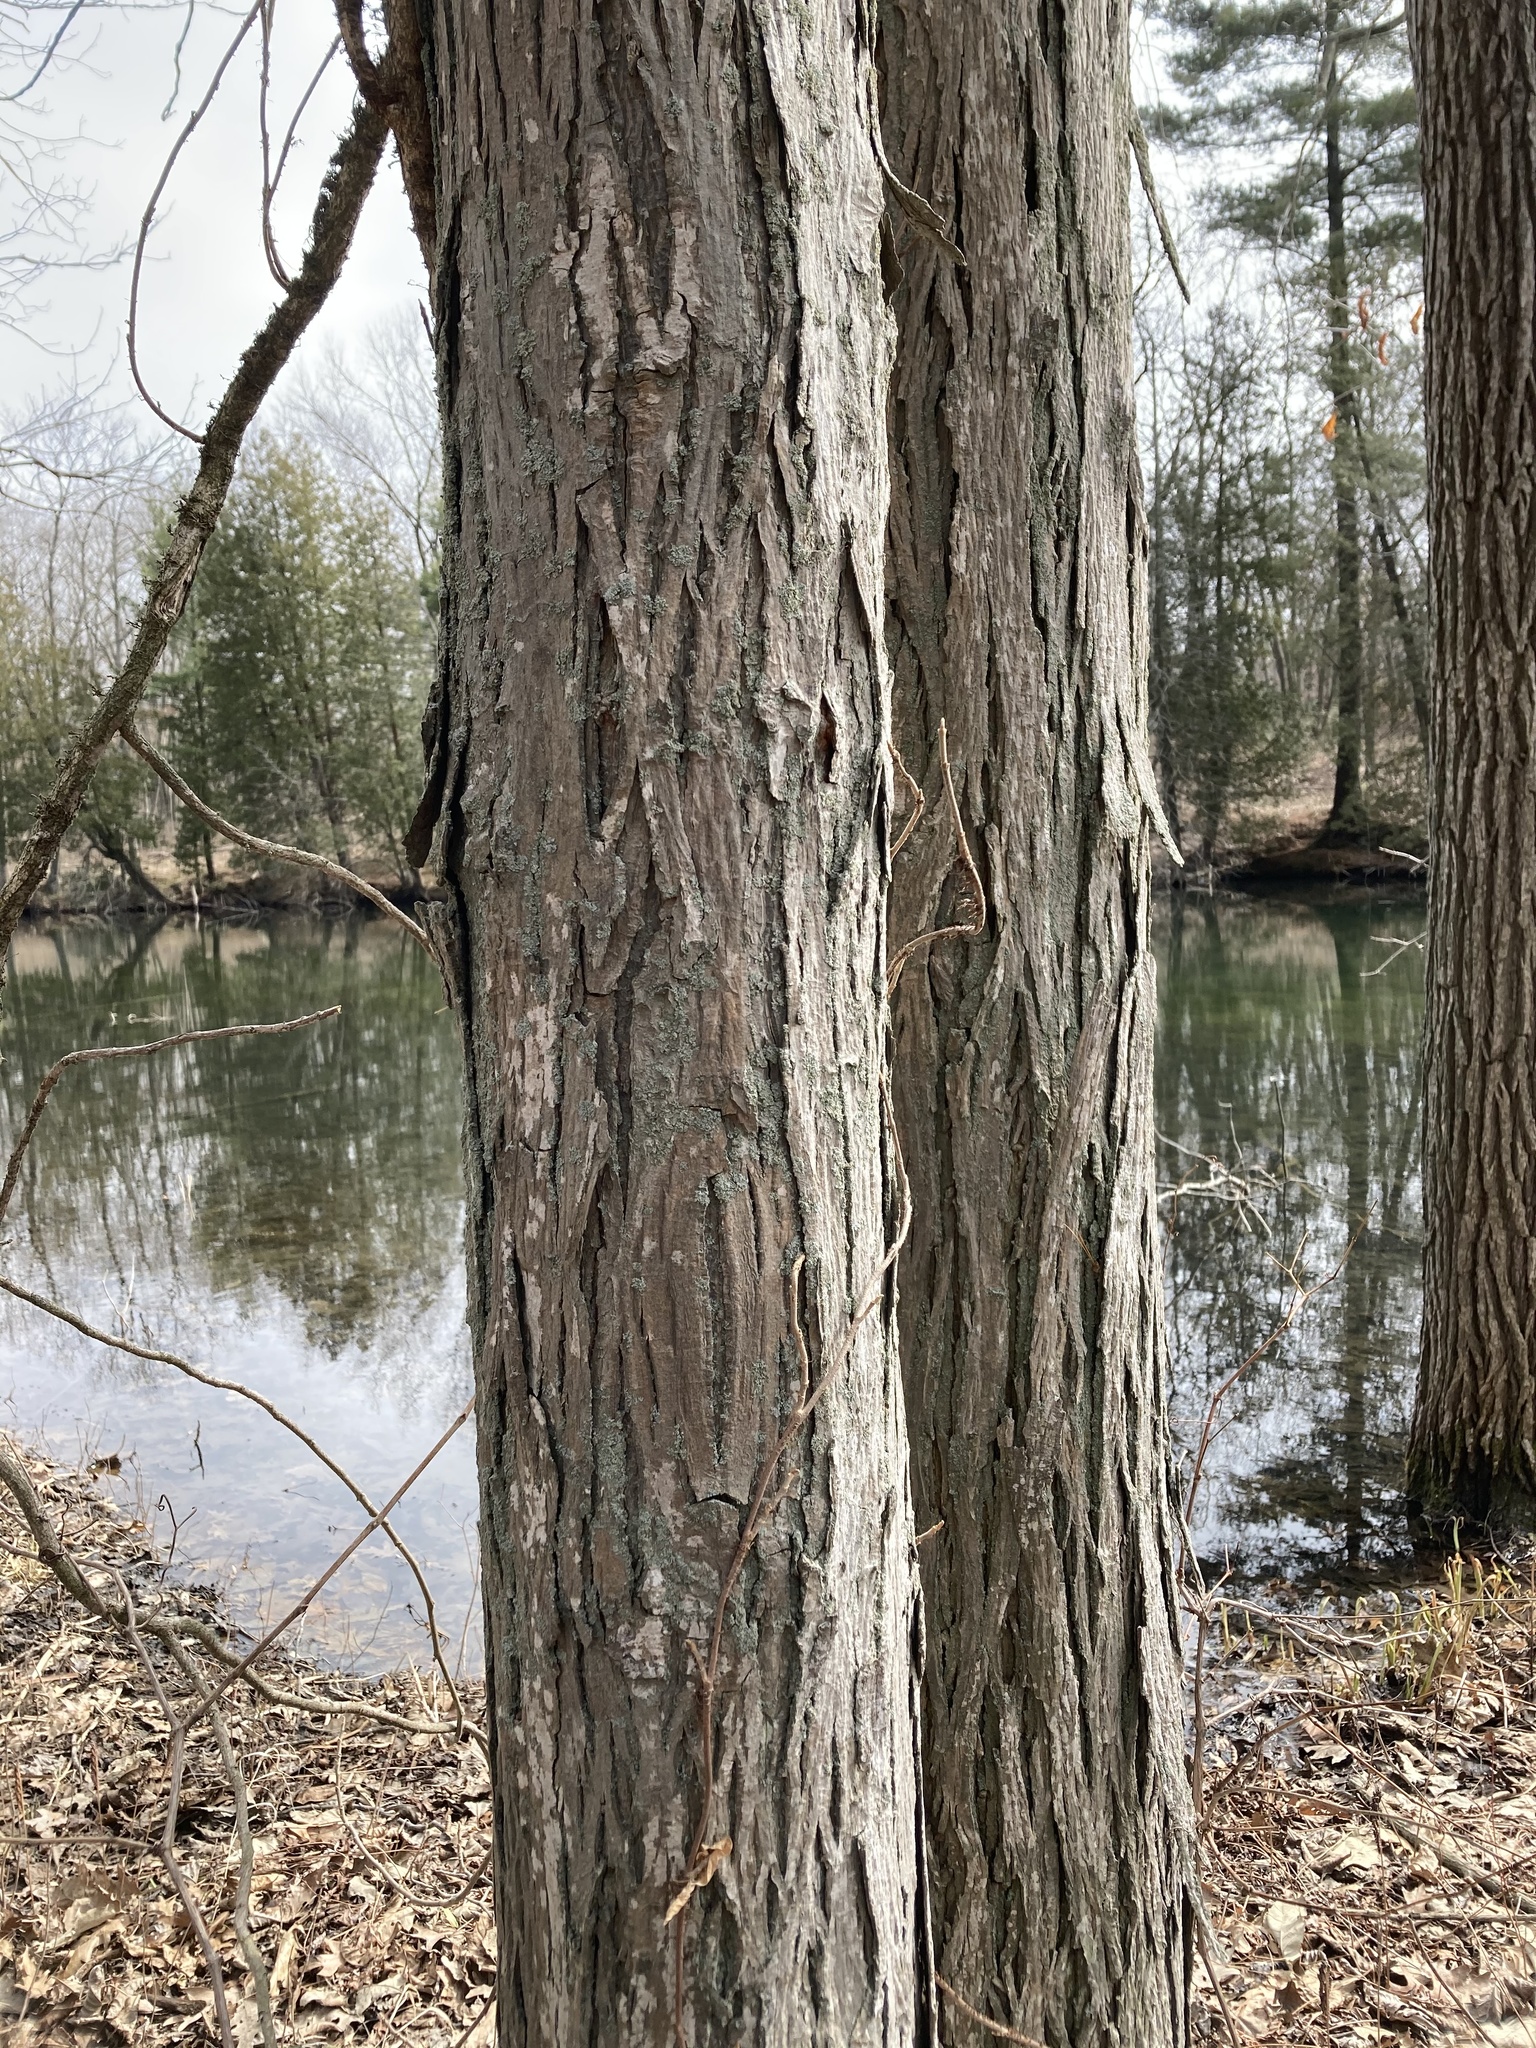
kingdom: Plantae
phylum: Tracheophyta
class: Magnoliopsida
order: Fagales
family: Juglandaceae
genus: Carya
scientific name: Carya ovata
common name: Shagbark hickory
